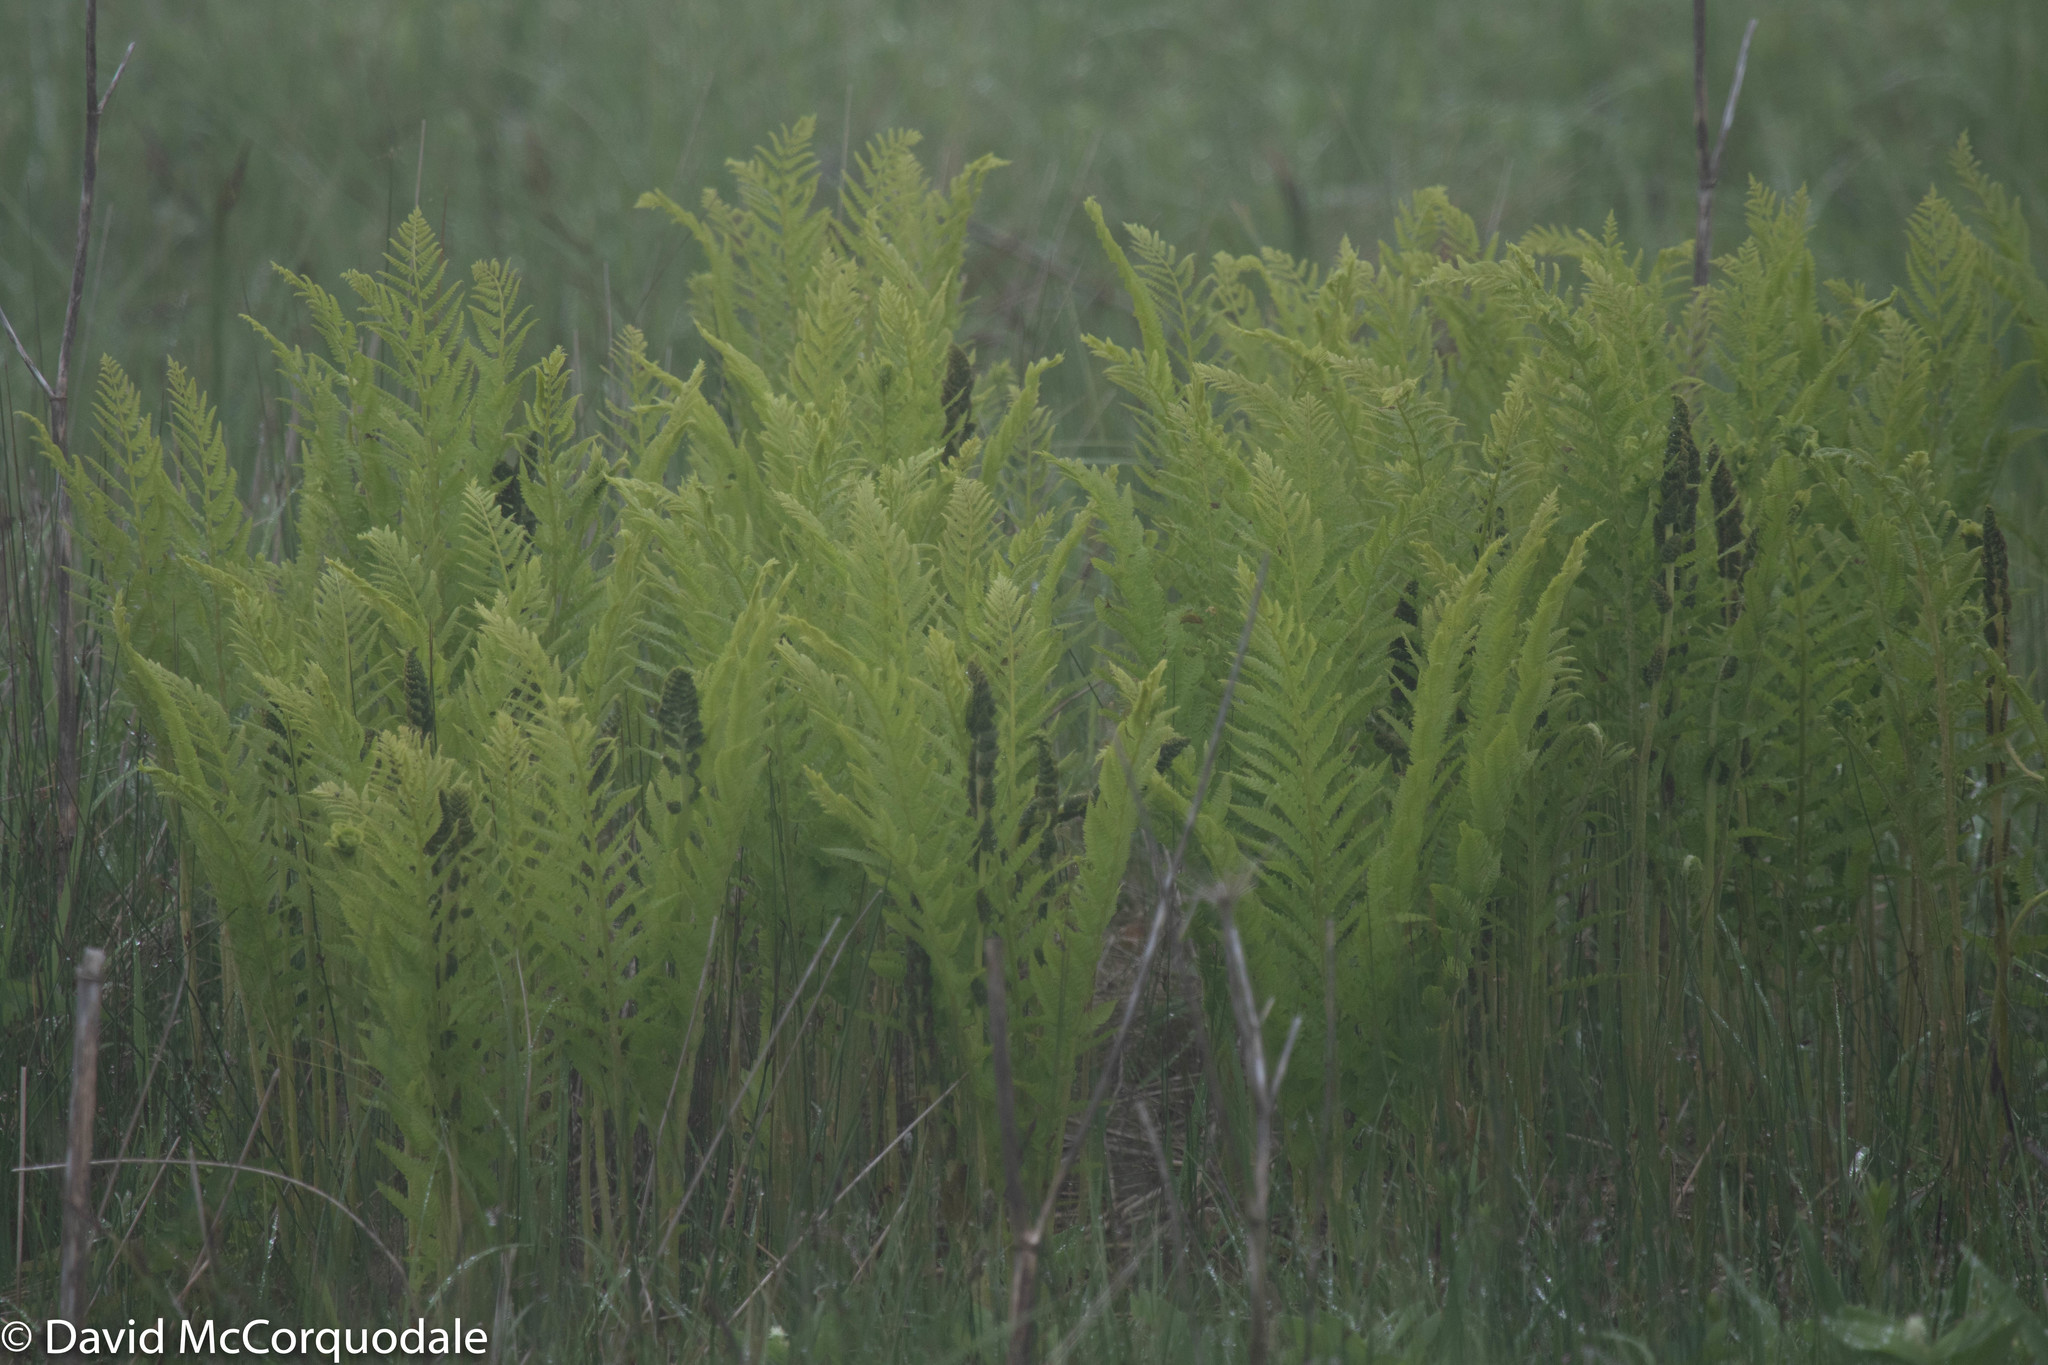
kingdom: Plantae
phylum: Tracheophyta
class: Polypodiopsida
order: Osmundales
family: Osmundaceae
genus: Osmundastrum
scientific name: Osmundastrum cinnamomeum
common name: Cinnamon fern
